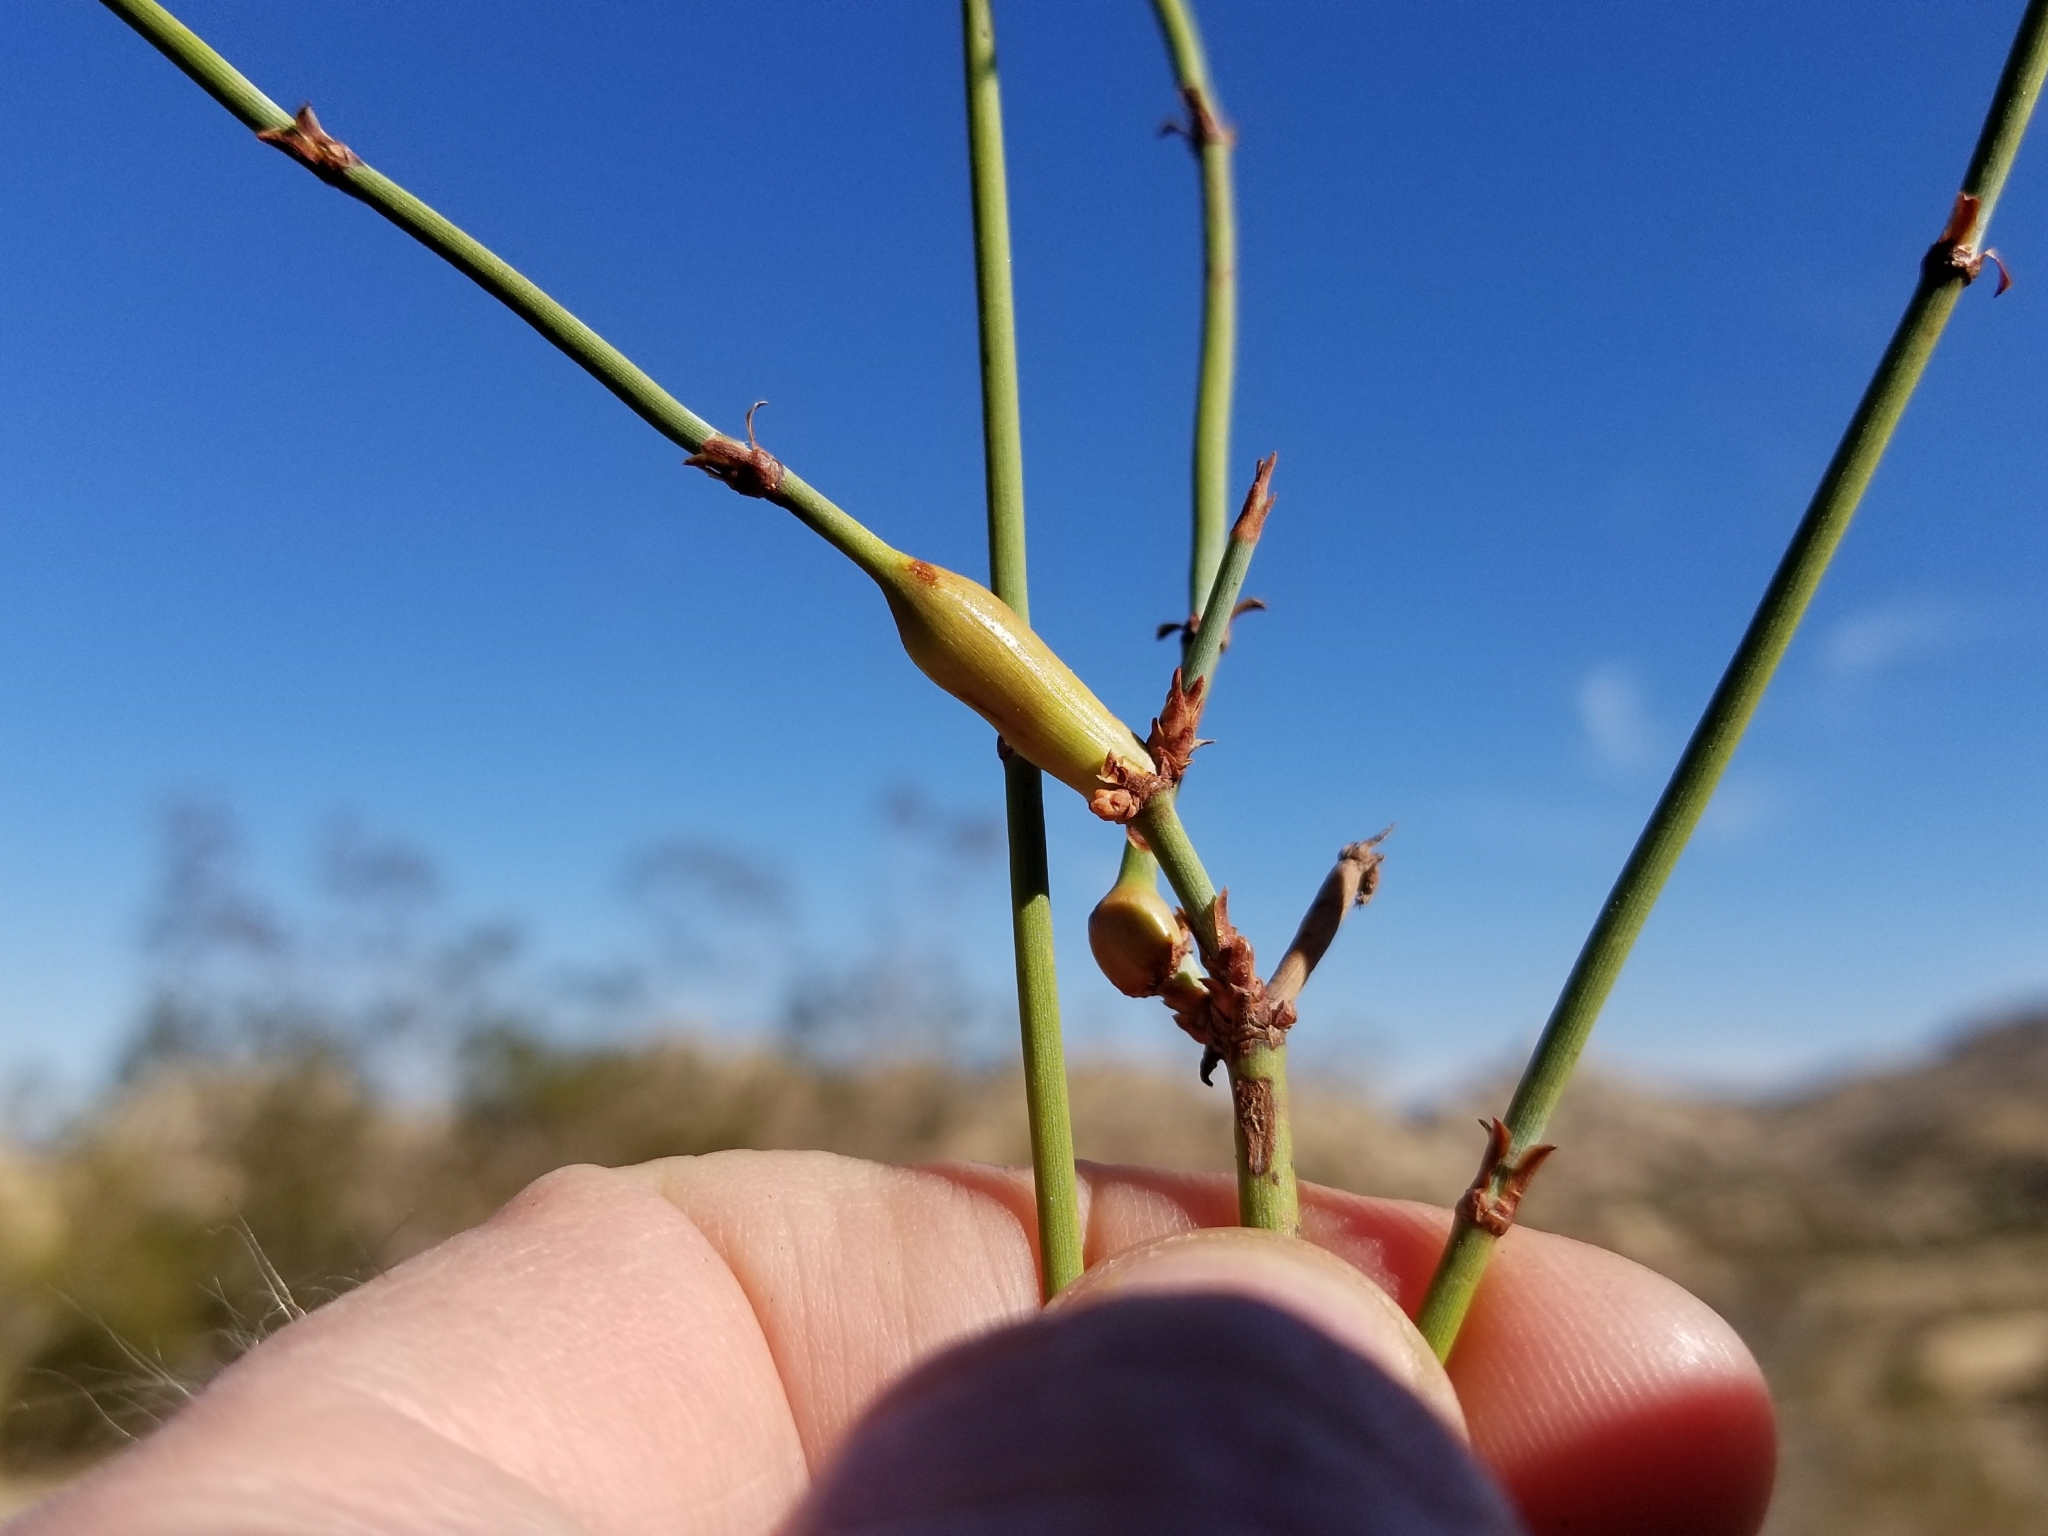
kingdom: Animalia
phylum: Arthropoda
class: Insecta
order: Diptera
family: Cecidomyiidae
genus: Lasioptera
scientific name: Lasioptera ephedrae
